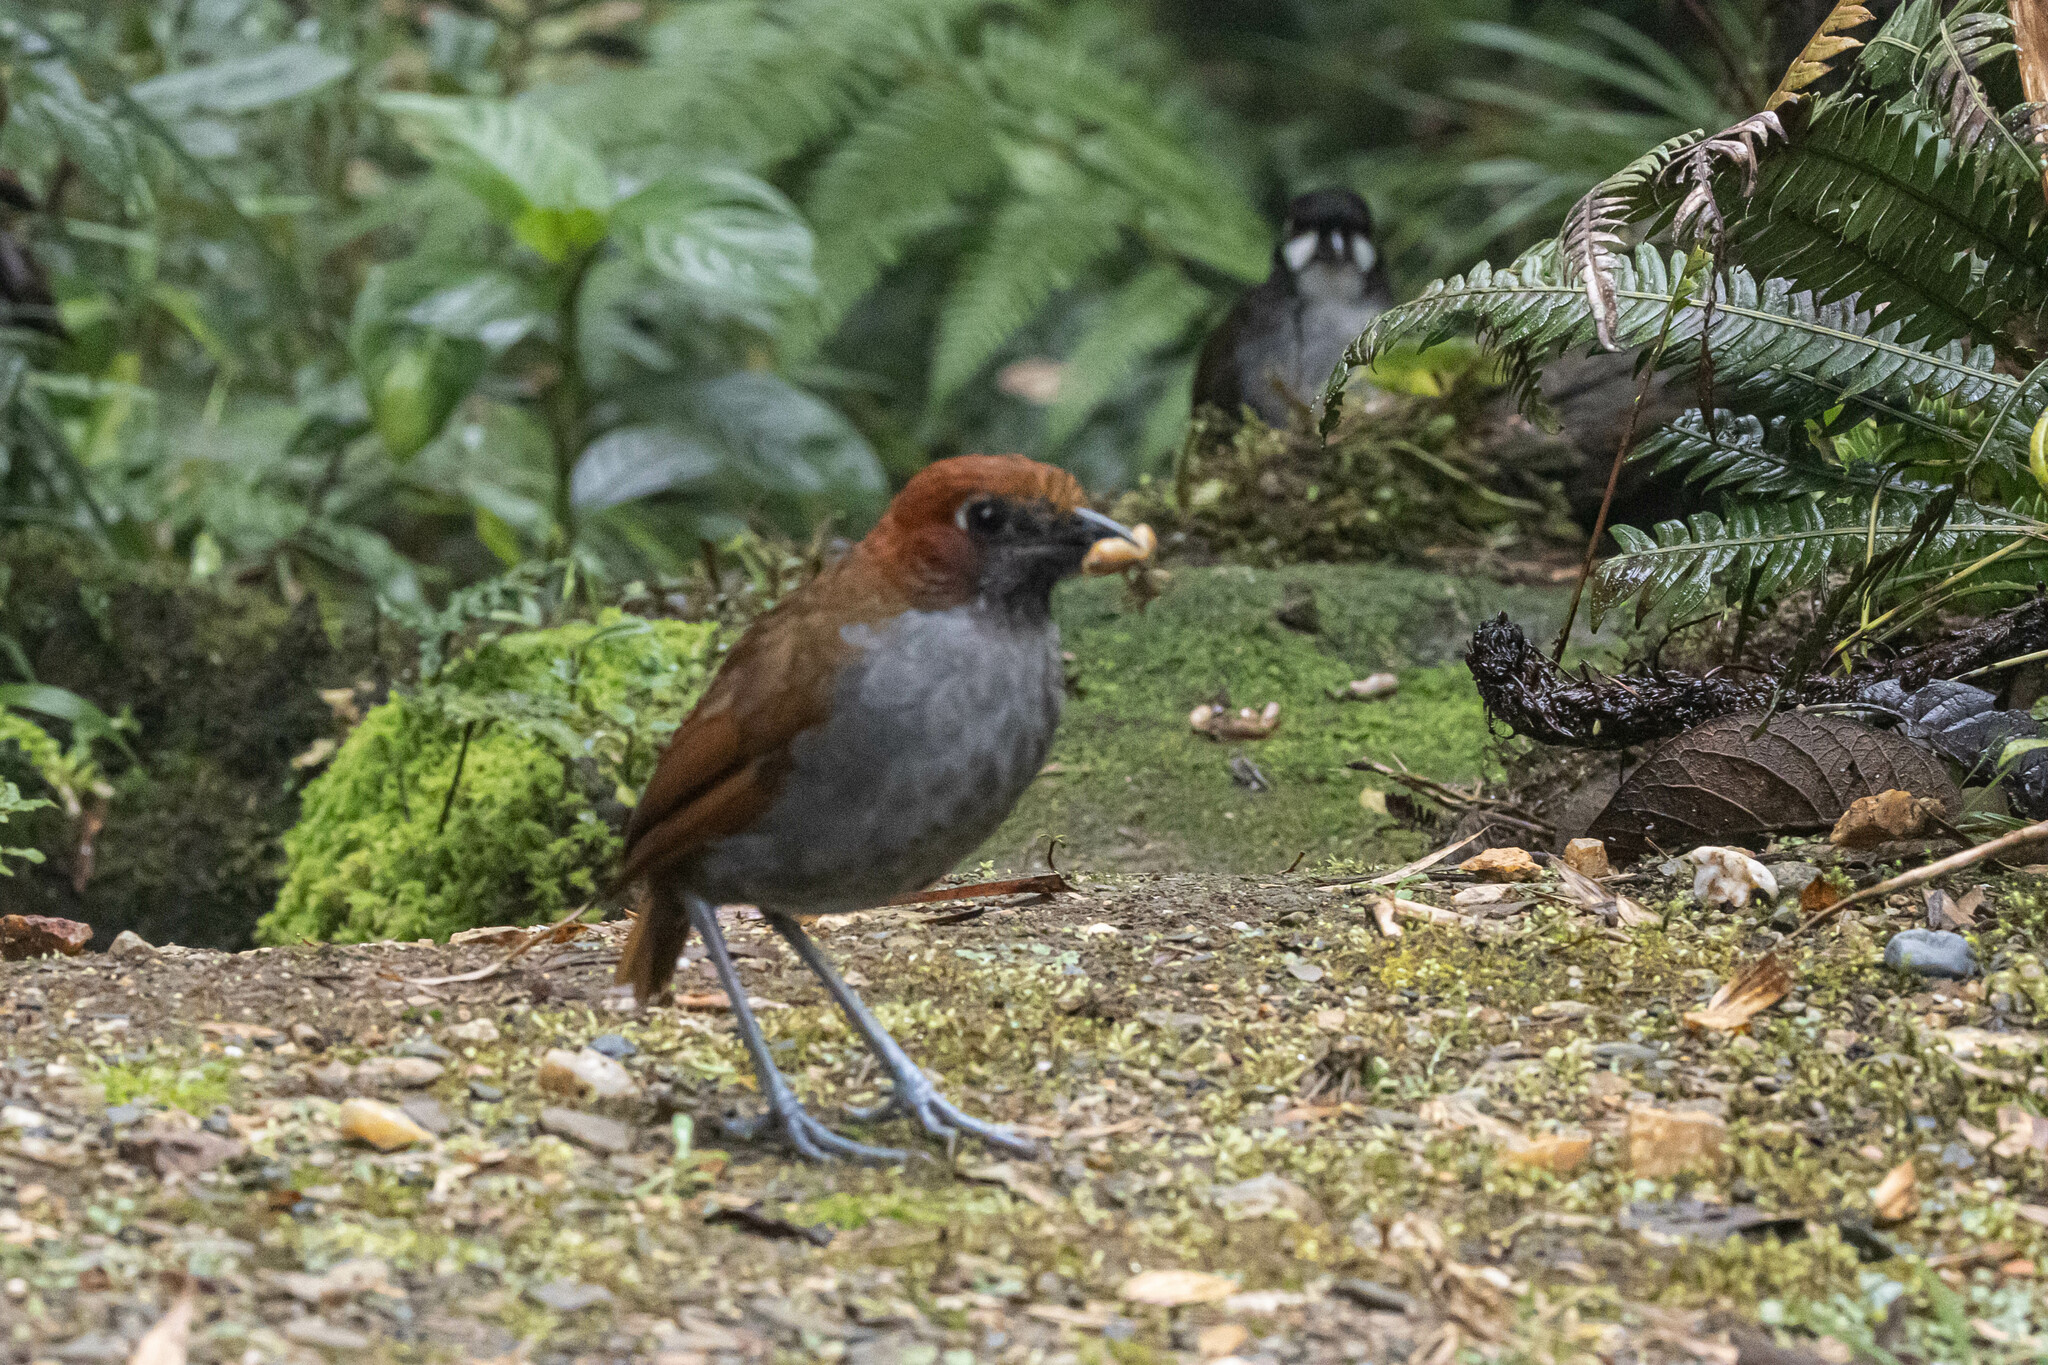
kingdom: Animalia
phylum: Chordata
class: Aves
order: Passeriformes
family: Grallariidae
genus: Grallaria
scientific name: Grallaria nuchalis
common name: Chestnut-naped antpitta
